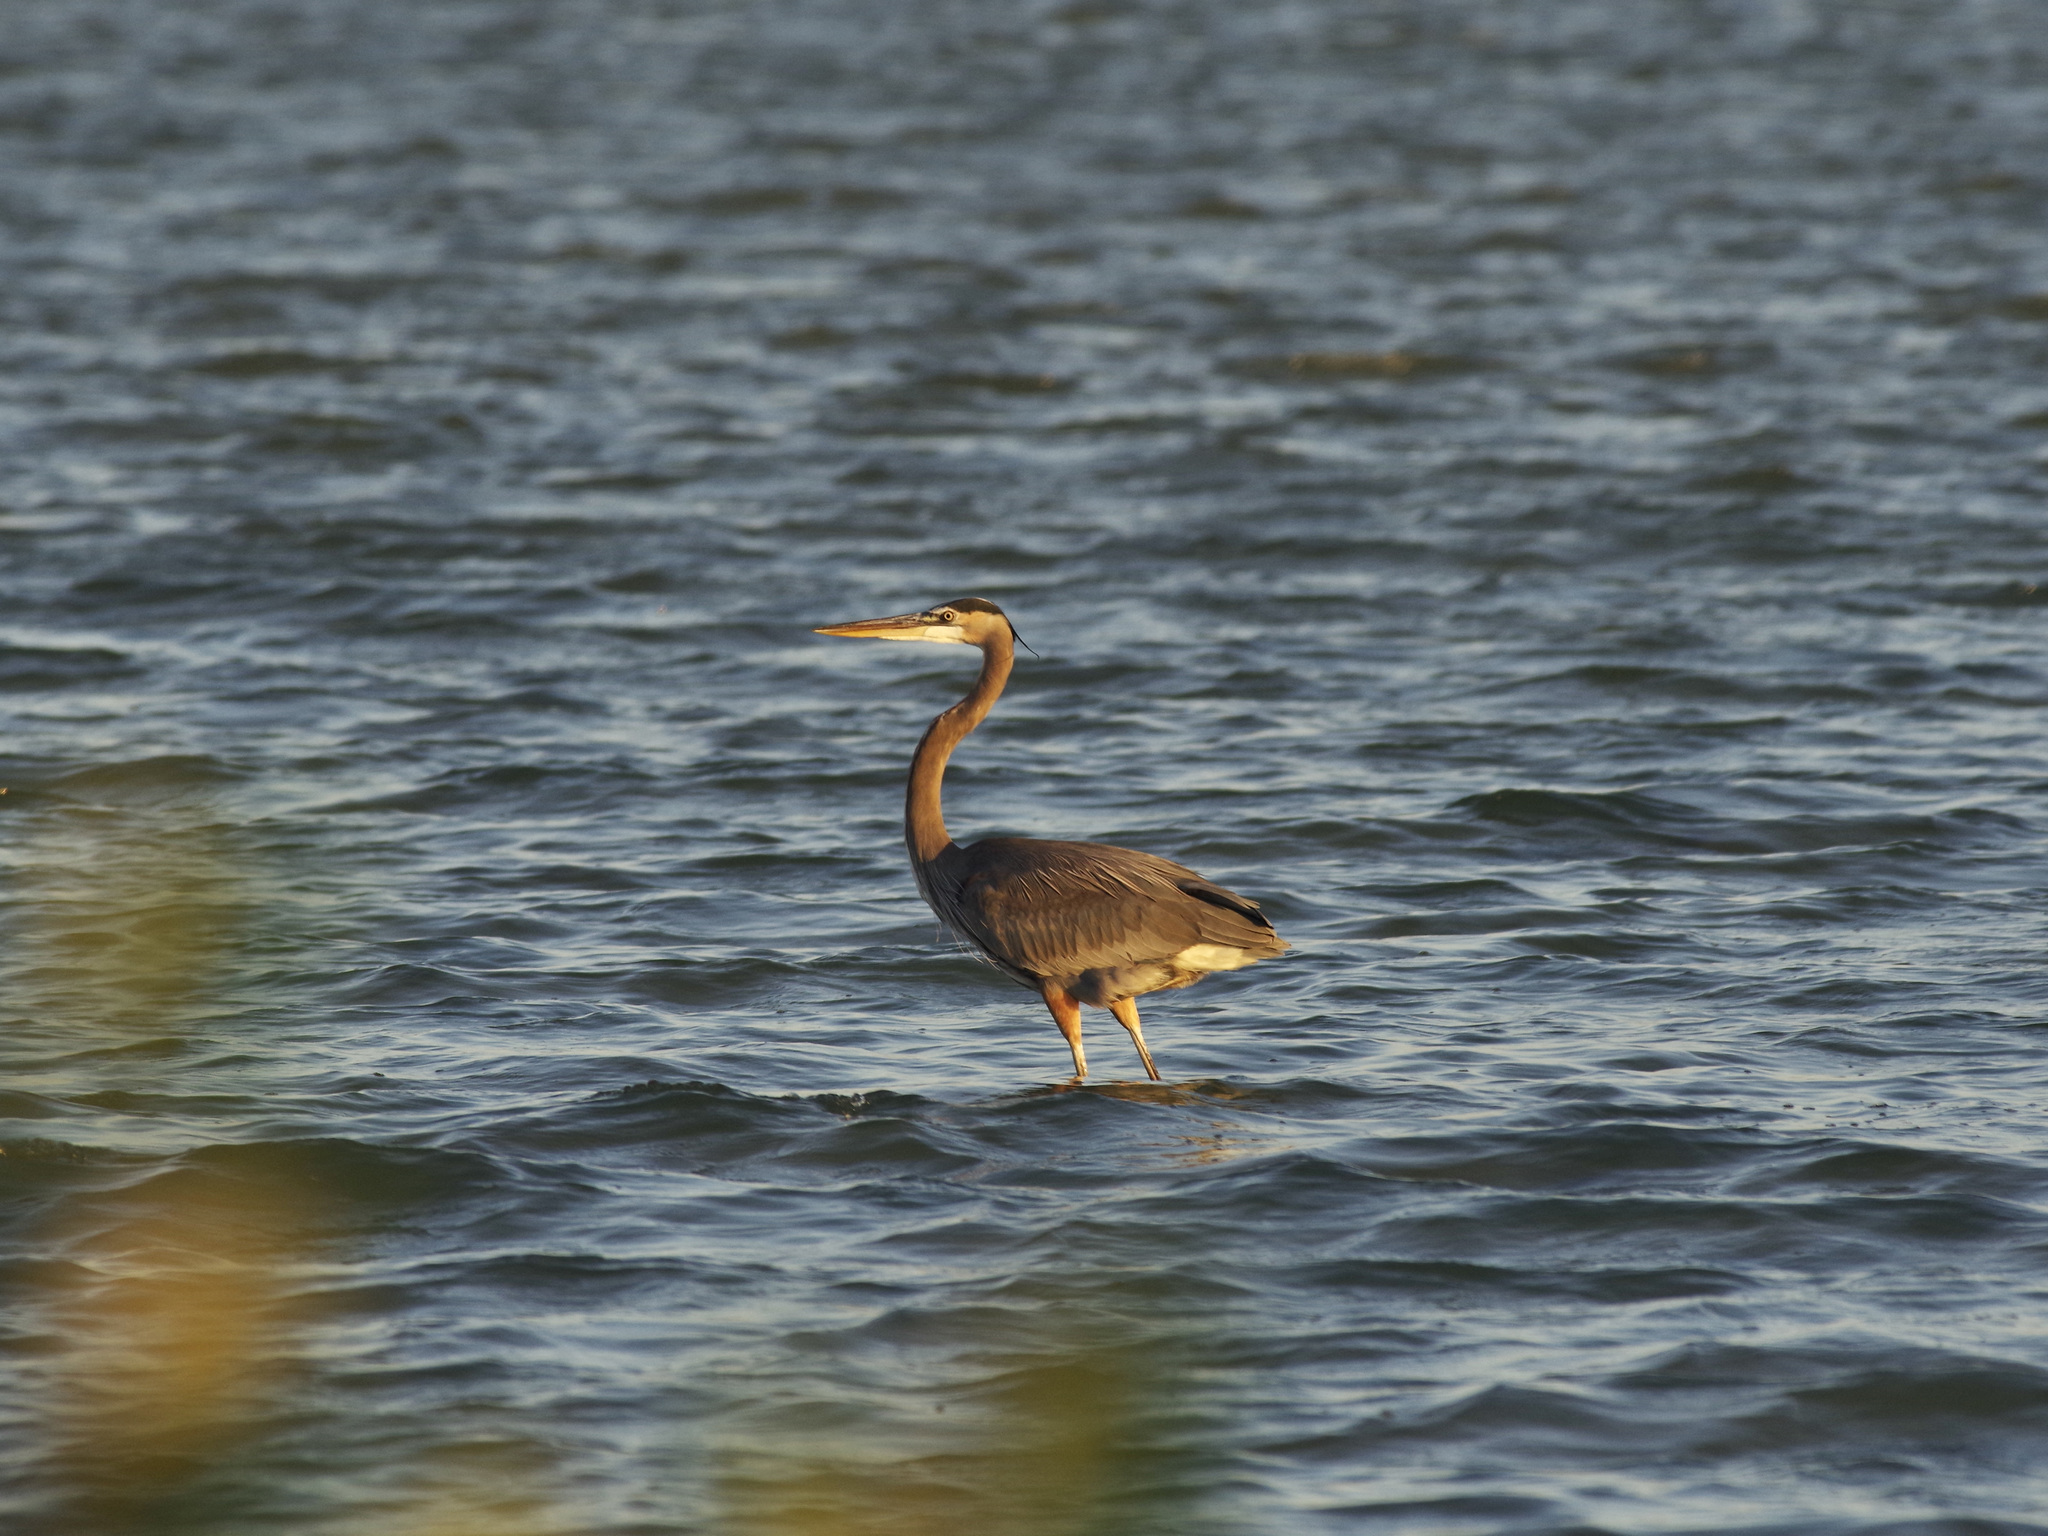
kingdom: Animalia
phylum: Chordata
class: Aves
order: Pelecaniformes
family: Ardeidae
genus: Ardea
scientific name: Ardea herodias
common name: Great blue heron
